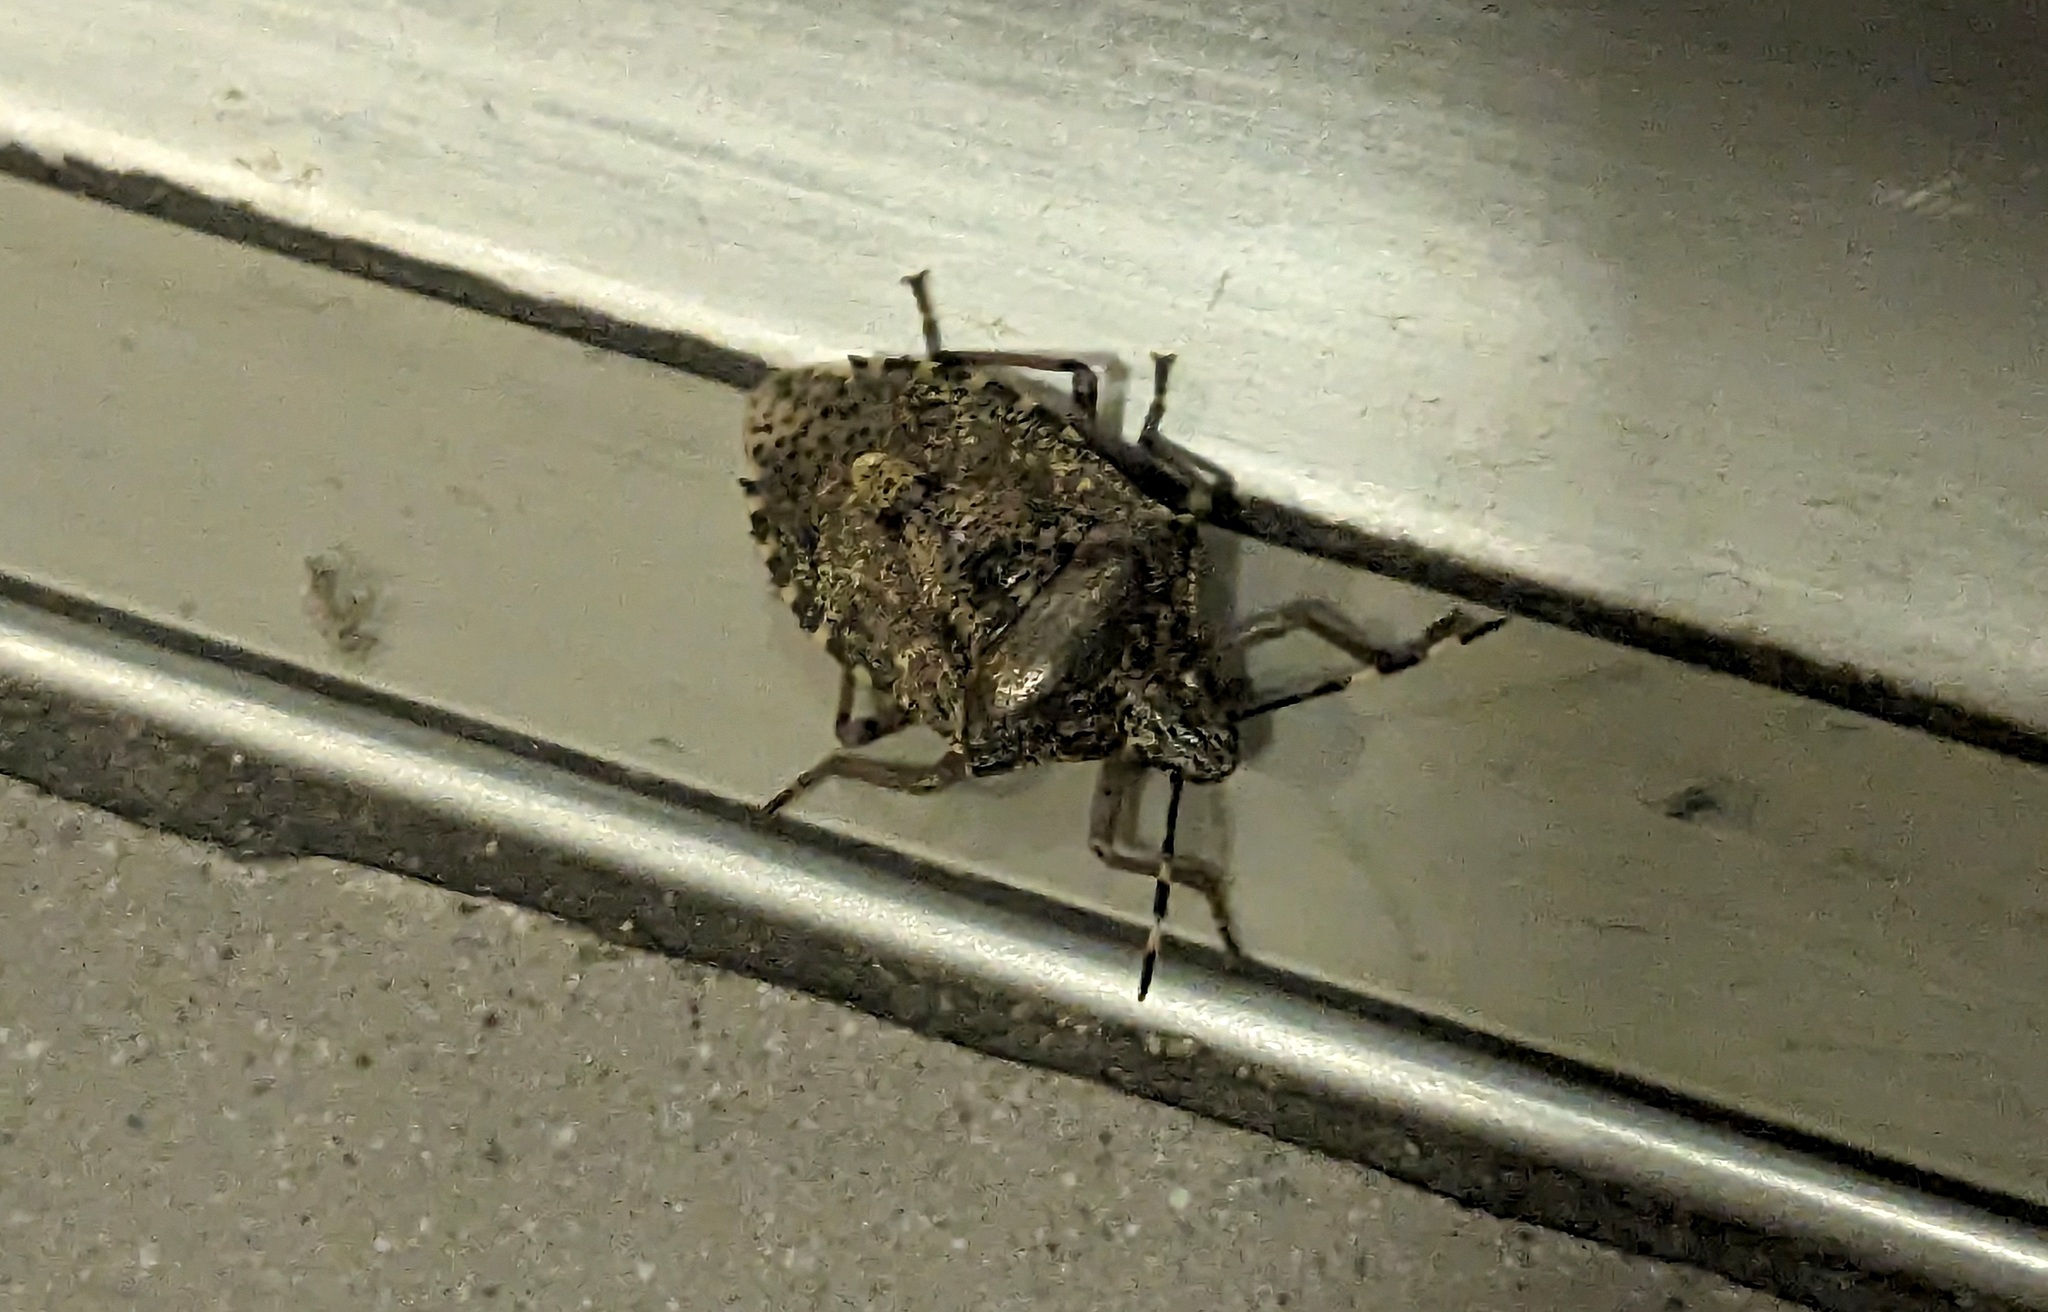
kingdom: Animalia
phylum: Arthropoda
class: Insecta
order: Hemiptera
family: Pentatomidae
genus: Rhaphigaster
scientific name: Rhaphigaster nebulosa
